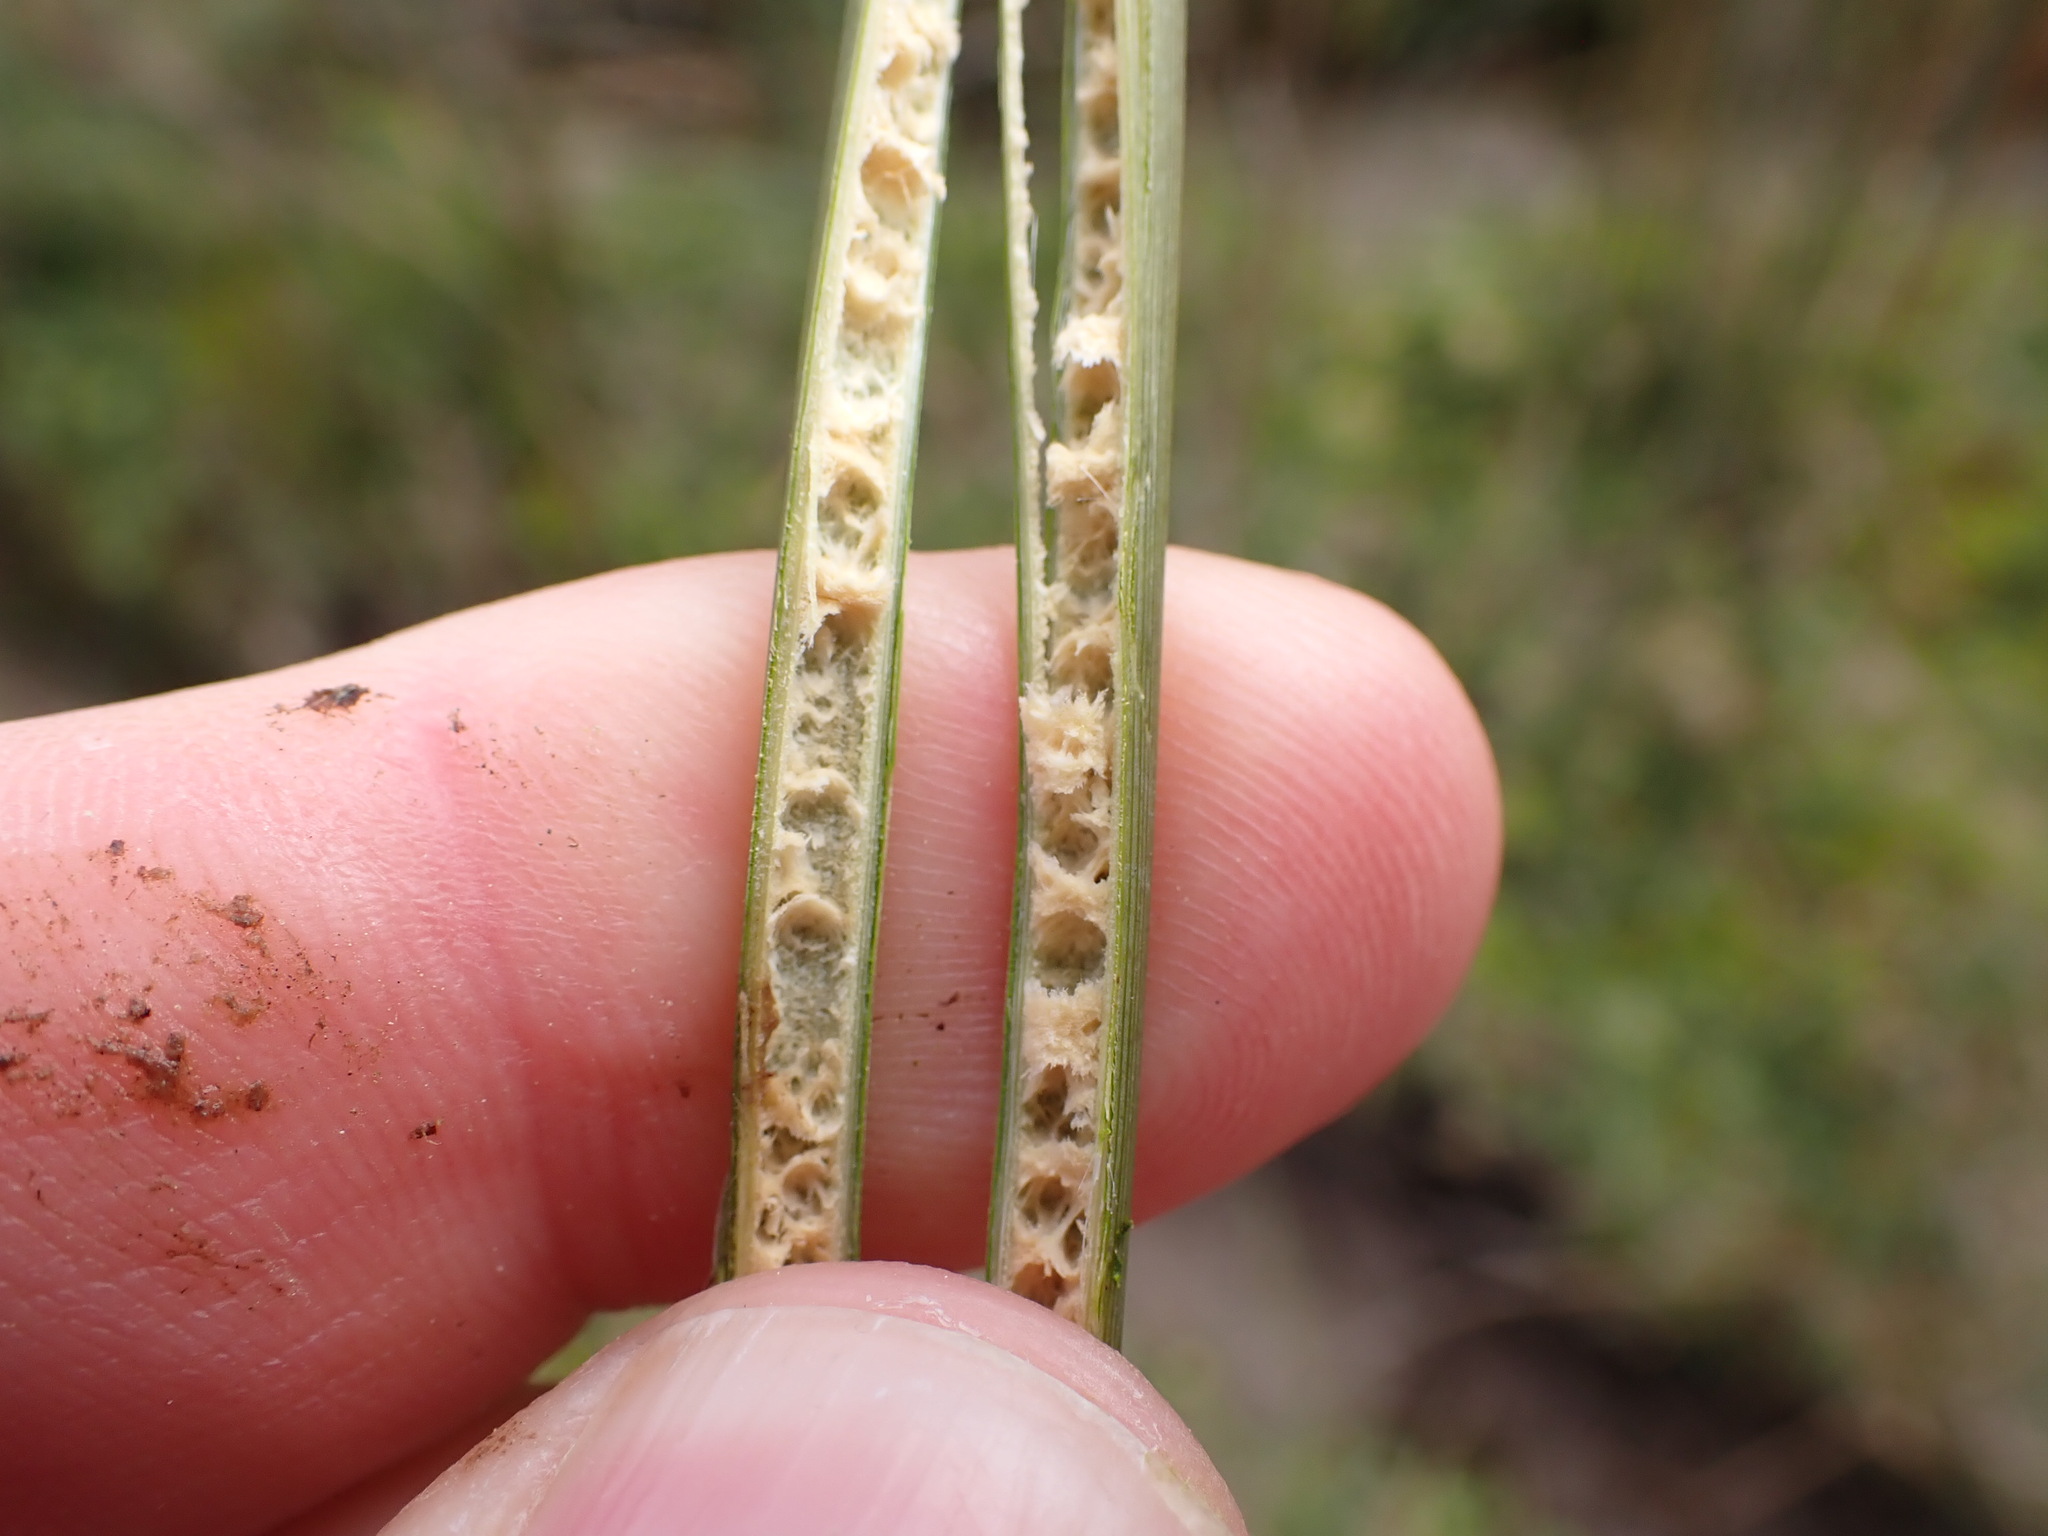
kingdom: Plantae
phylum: Tracheophyta
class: Liliopsida
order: Poales
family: Juncaceae
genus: Juncus
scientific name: Juncus australis
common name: Austral rush
